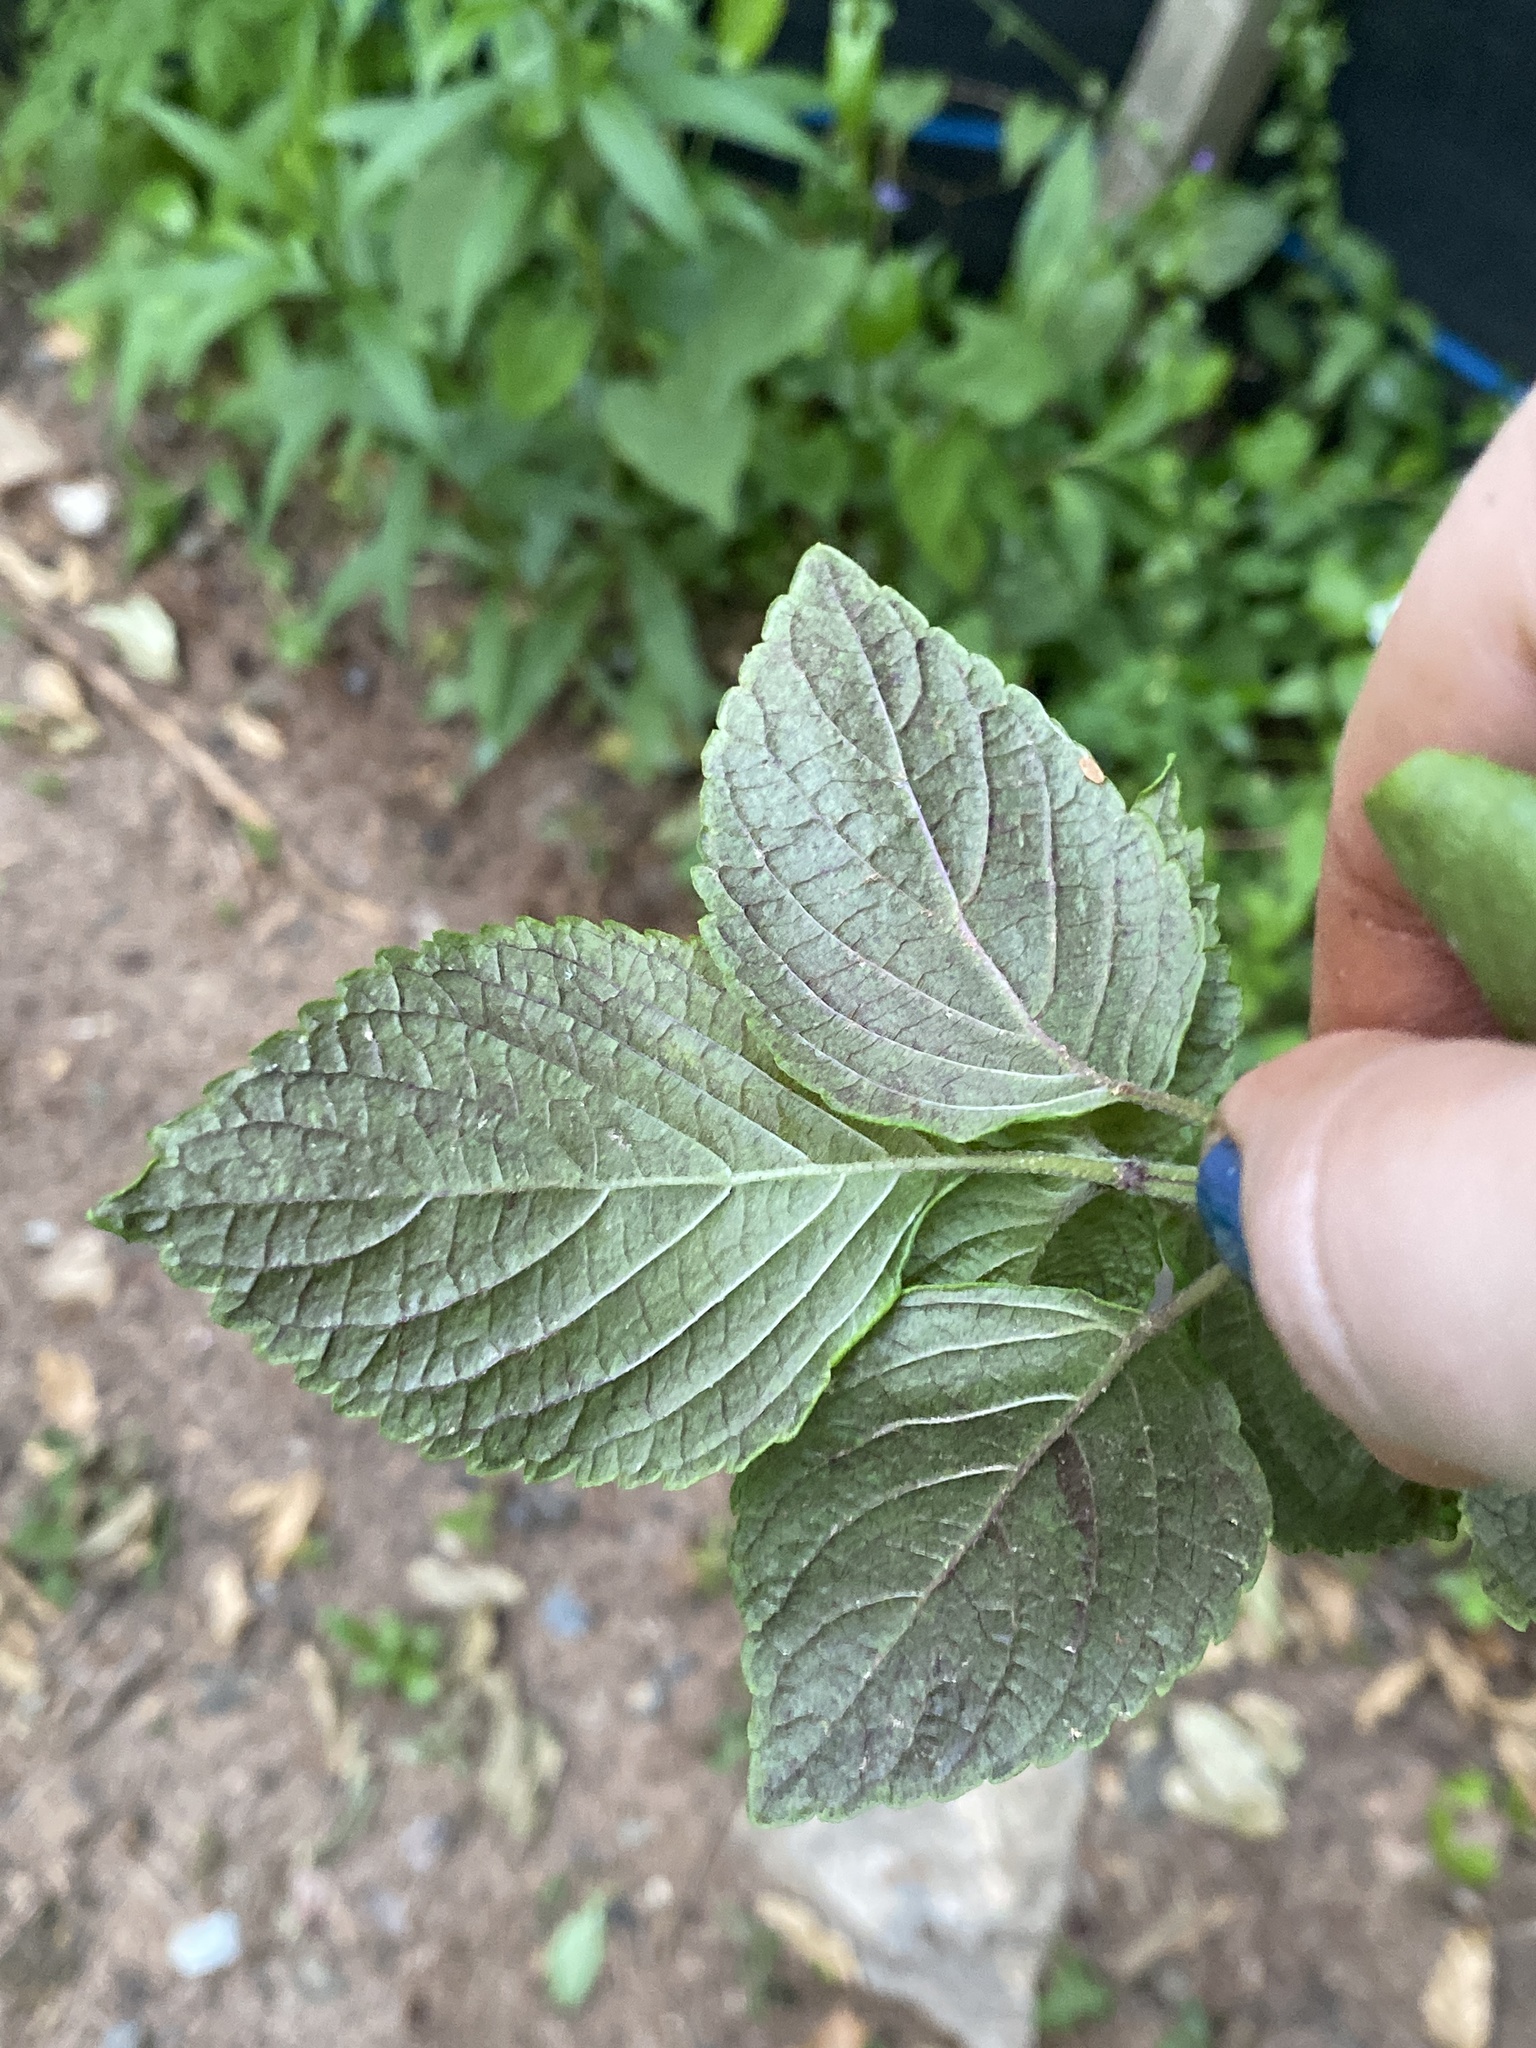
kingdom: Plantae
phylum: Tracheophyta
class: Magnoliopsida
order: Lamiales
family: Lamiaceae
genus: Perilla
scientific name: Perilla frutescens
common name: Perilla
